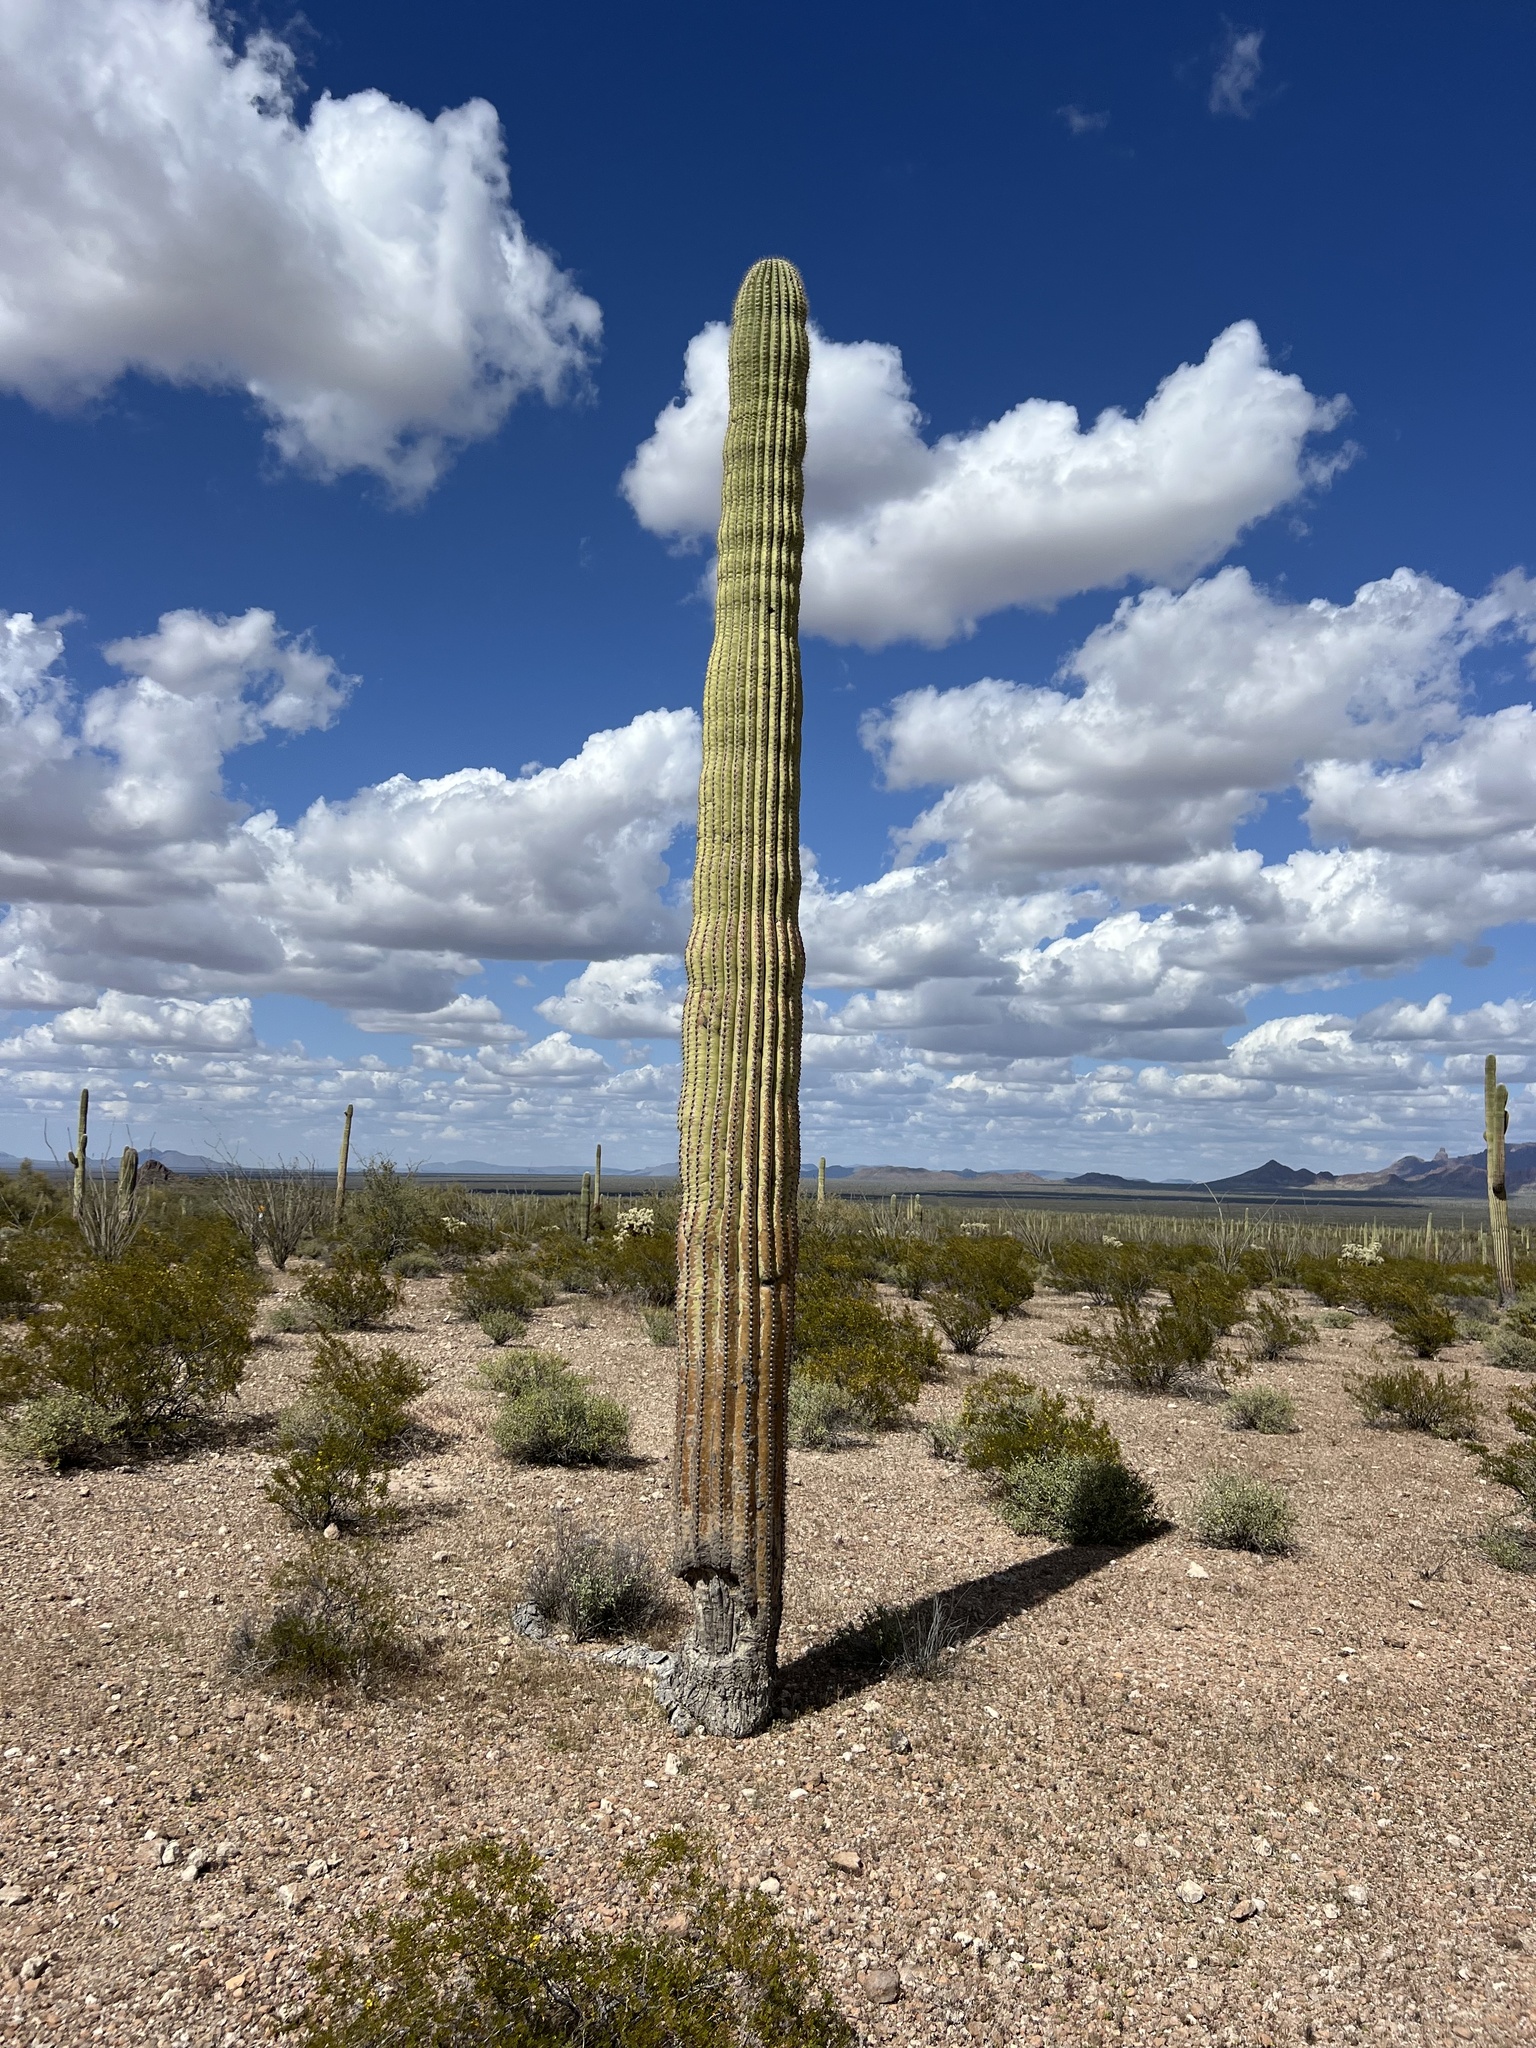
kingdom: Plantae
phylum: Tracheophyta
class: Magnoliopsida
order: Caryophyllales
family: Cactaceae
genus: Carnegiea
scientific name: Carnegiea gigantea
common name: Saguaro
